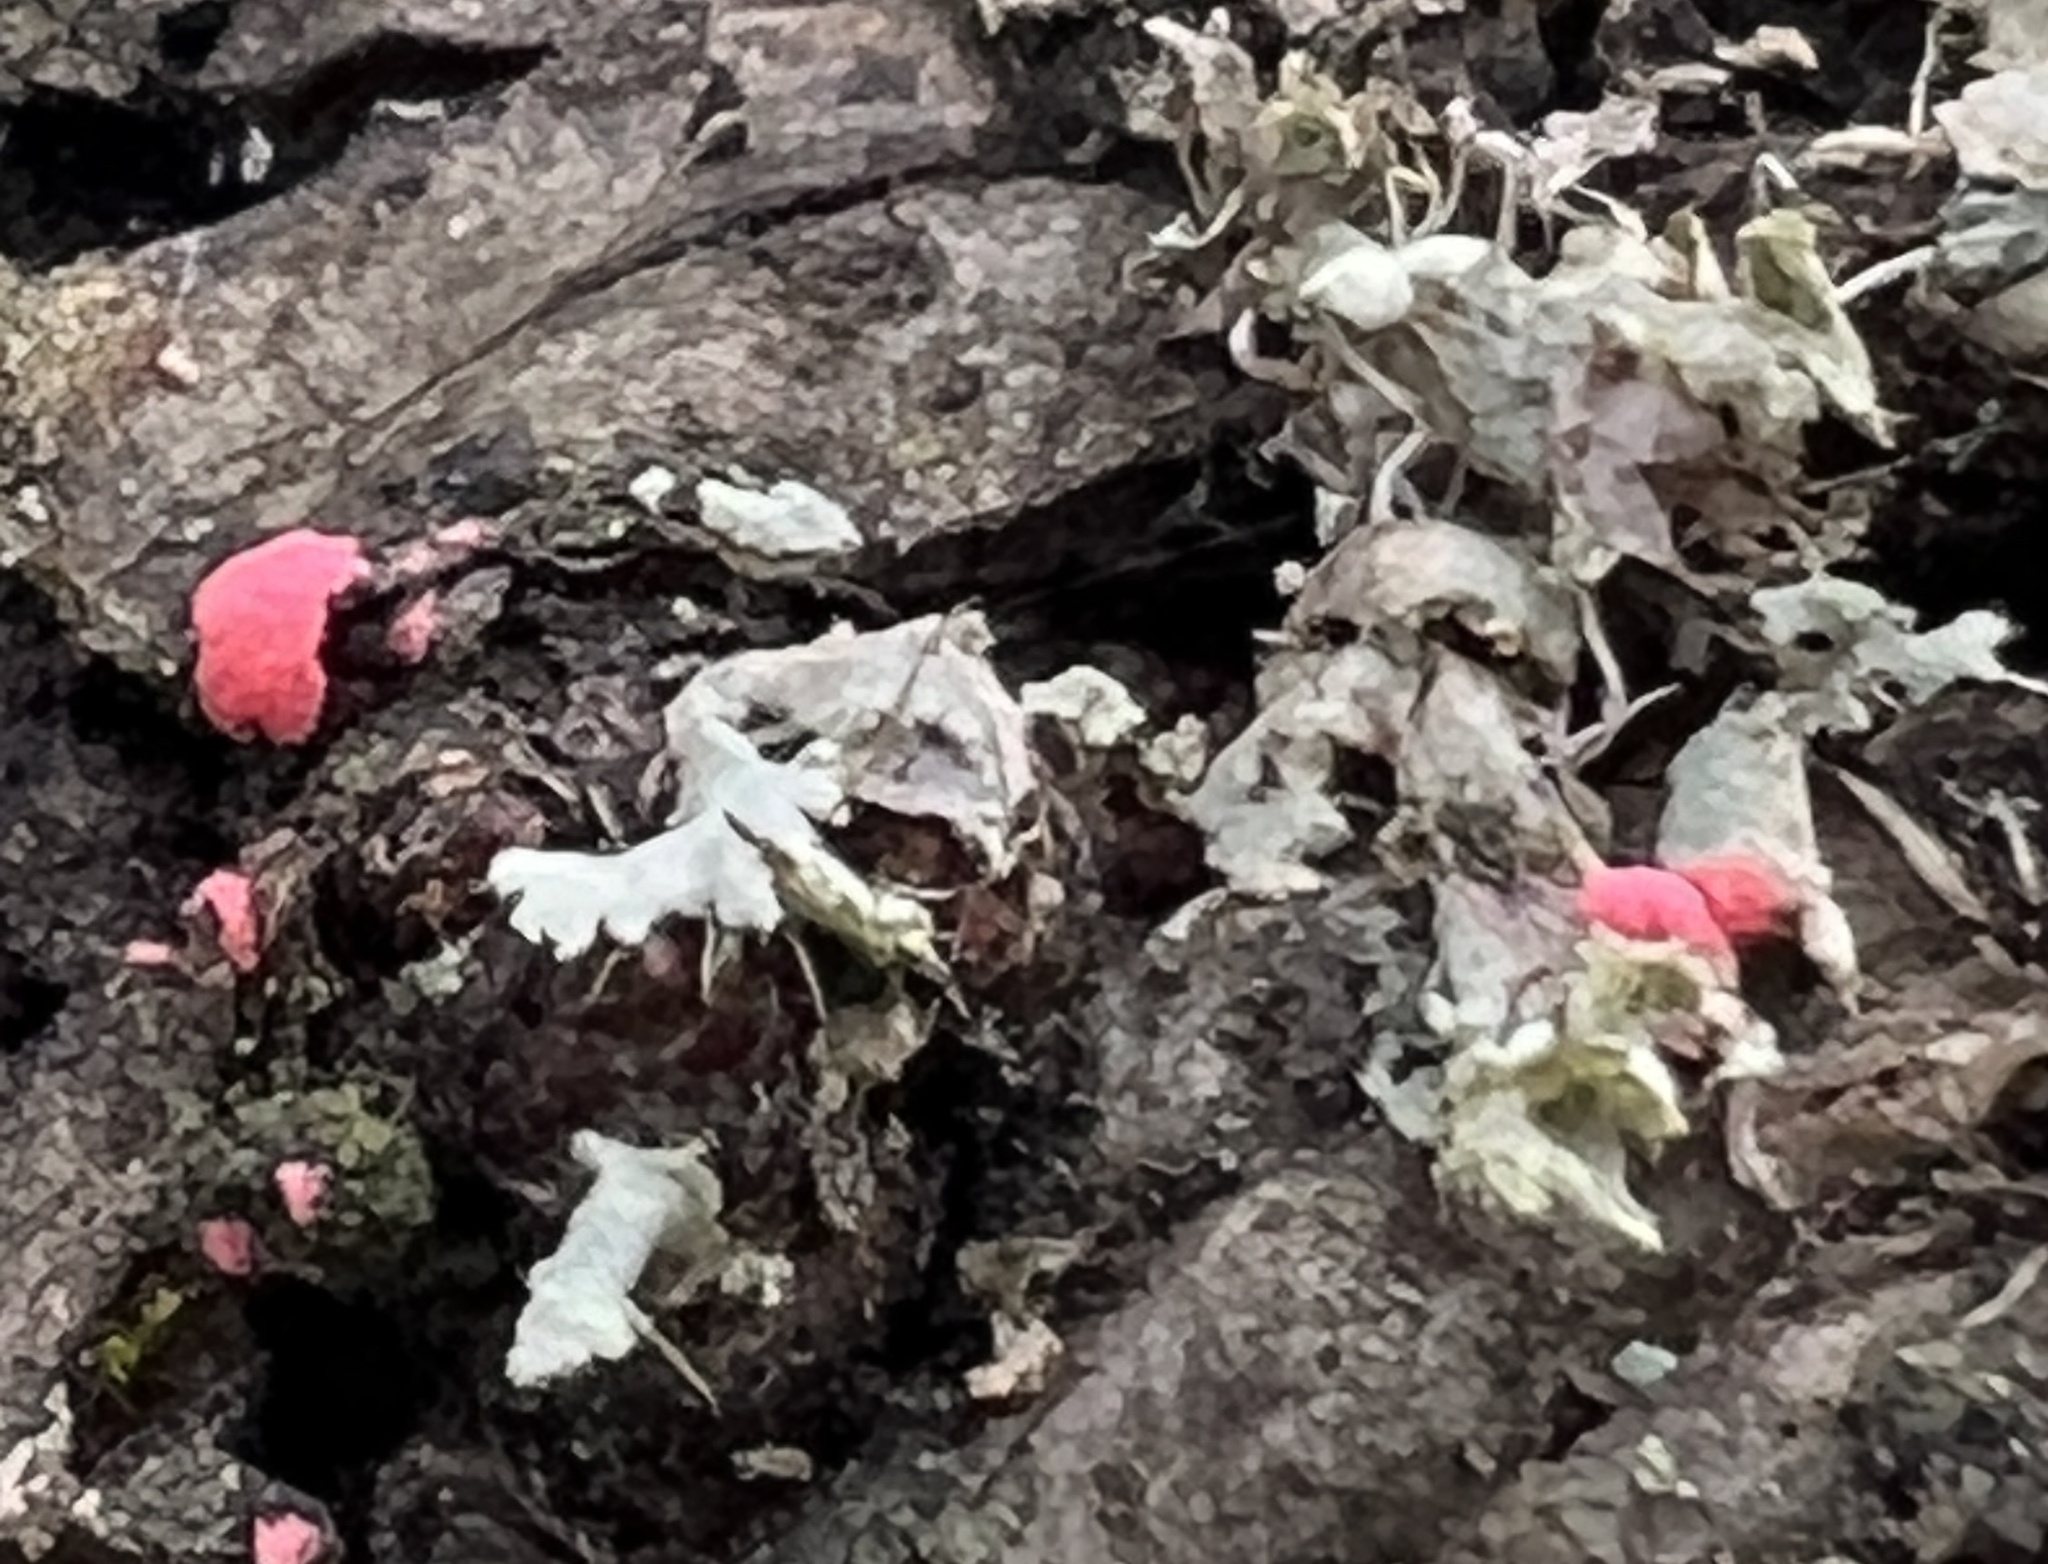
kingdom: Fungi
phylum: Ascomycota
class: Sordariomycetes
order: Hypocreales
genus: Illosporiopsis
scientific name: Illosporiopsis christiansenii
